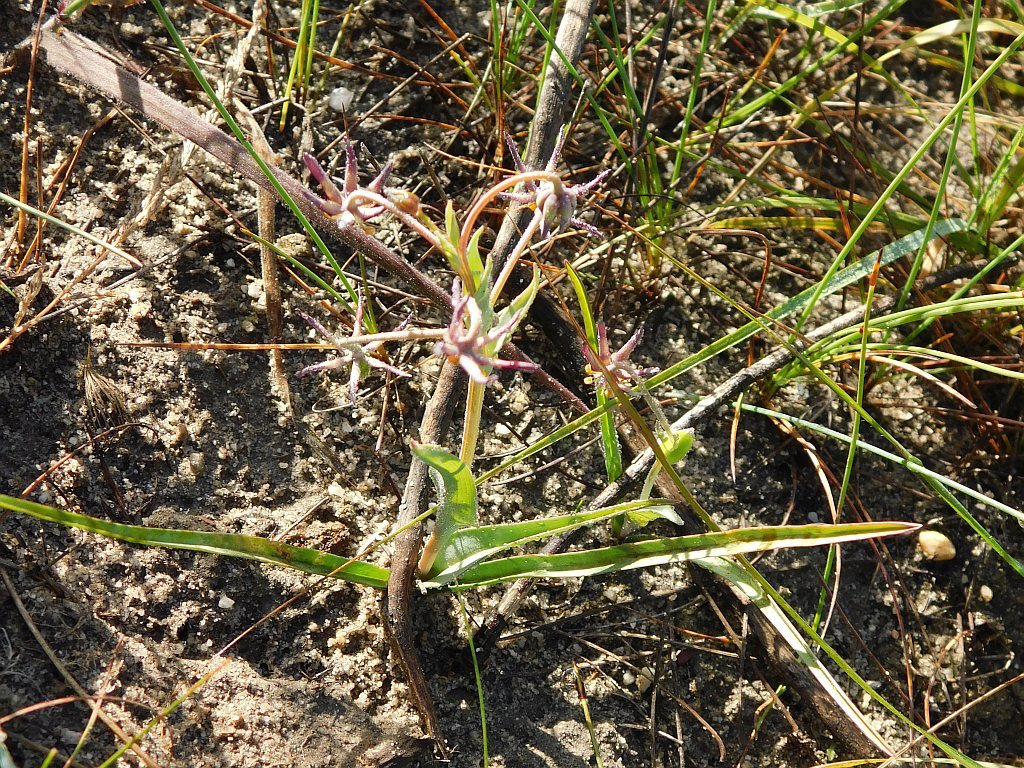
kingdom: Plantae
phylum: Tracheophyta
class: Liliopsida
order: Liliales
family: Colchicaceae
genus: Ornithoglossum
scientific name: Ornithoglossum viride
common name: Cape poison-onion
